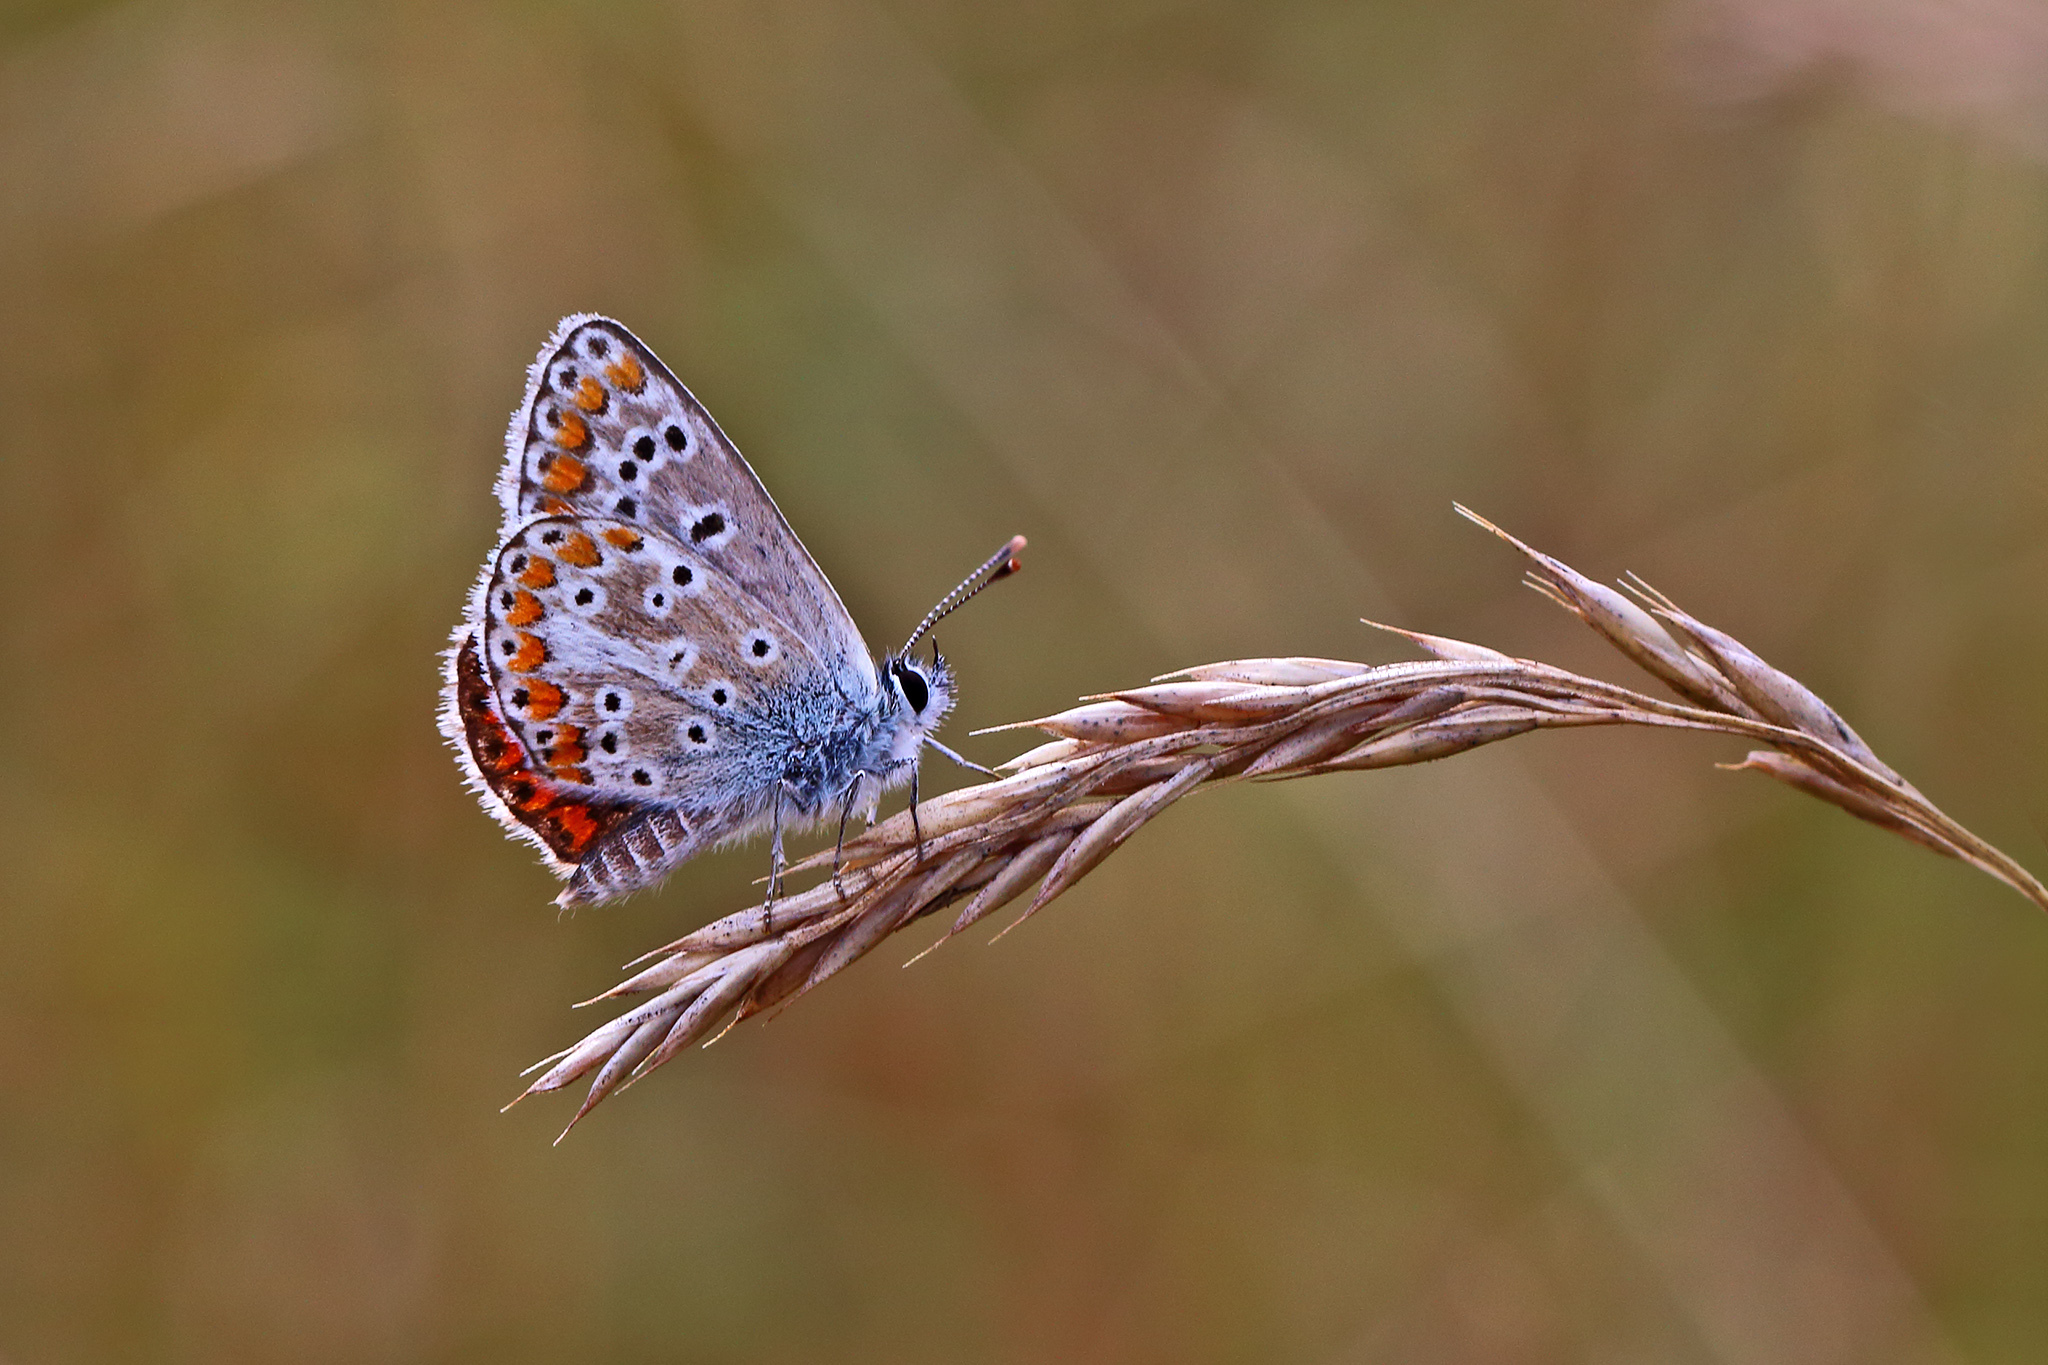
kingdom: Animalia
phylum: Arthropoda
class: Insecta
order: Lepidoptera
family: Lycaenidae
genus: Aricia
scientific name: Aricia agestis
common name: Brown argus
